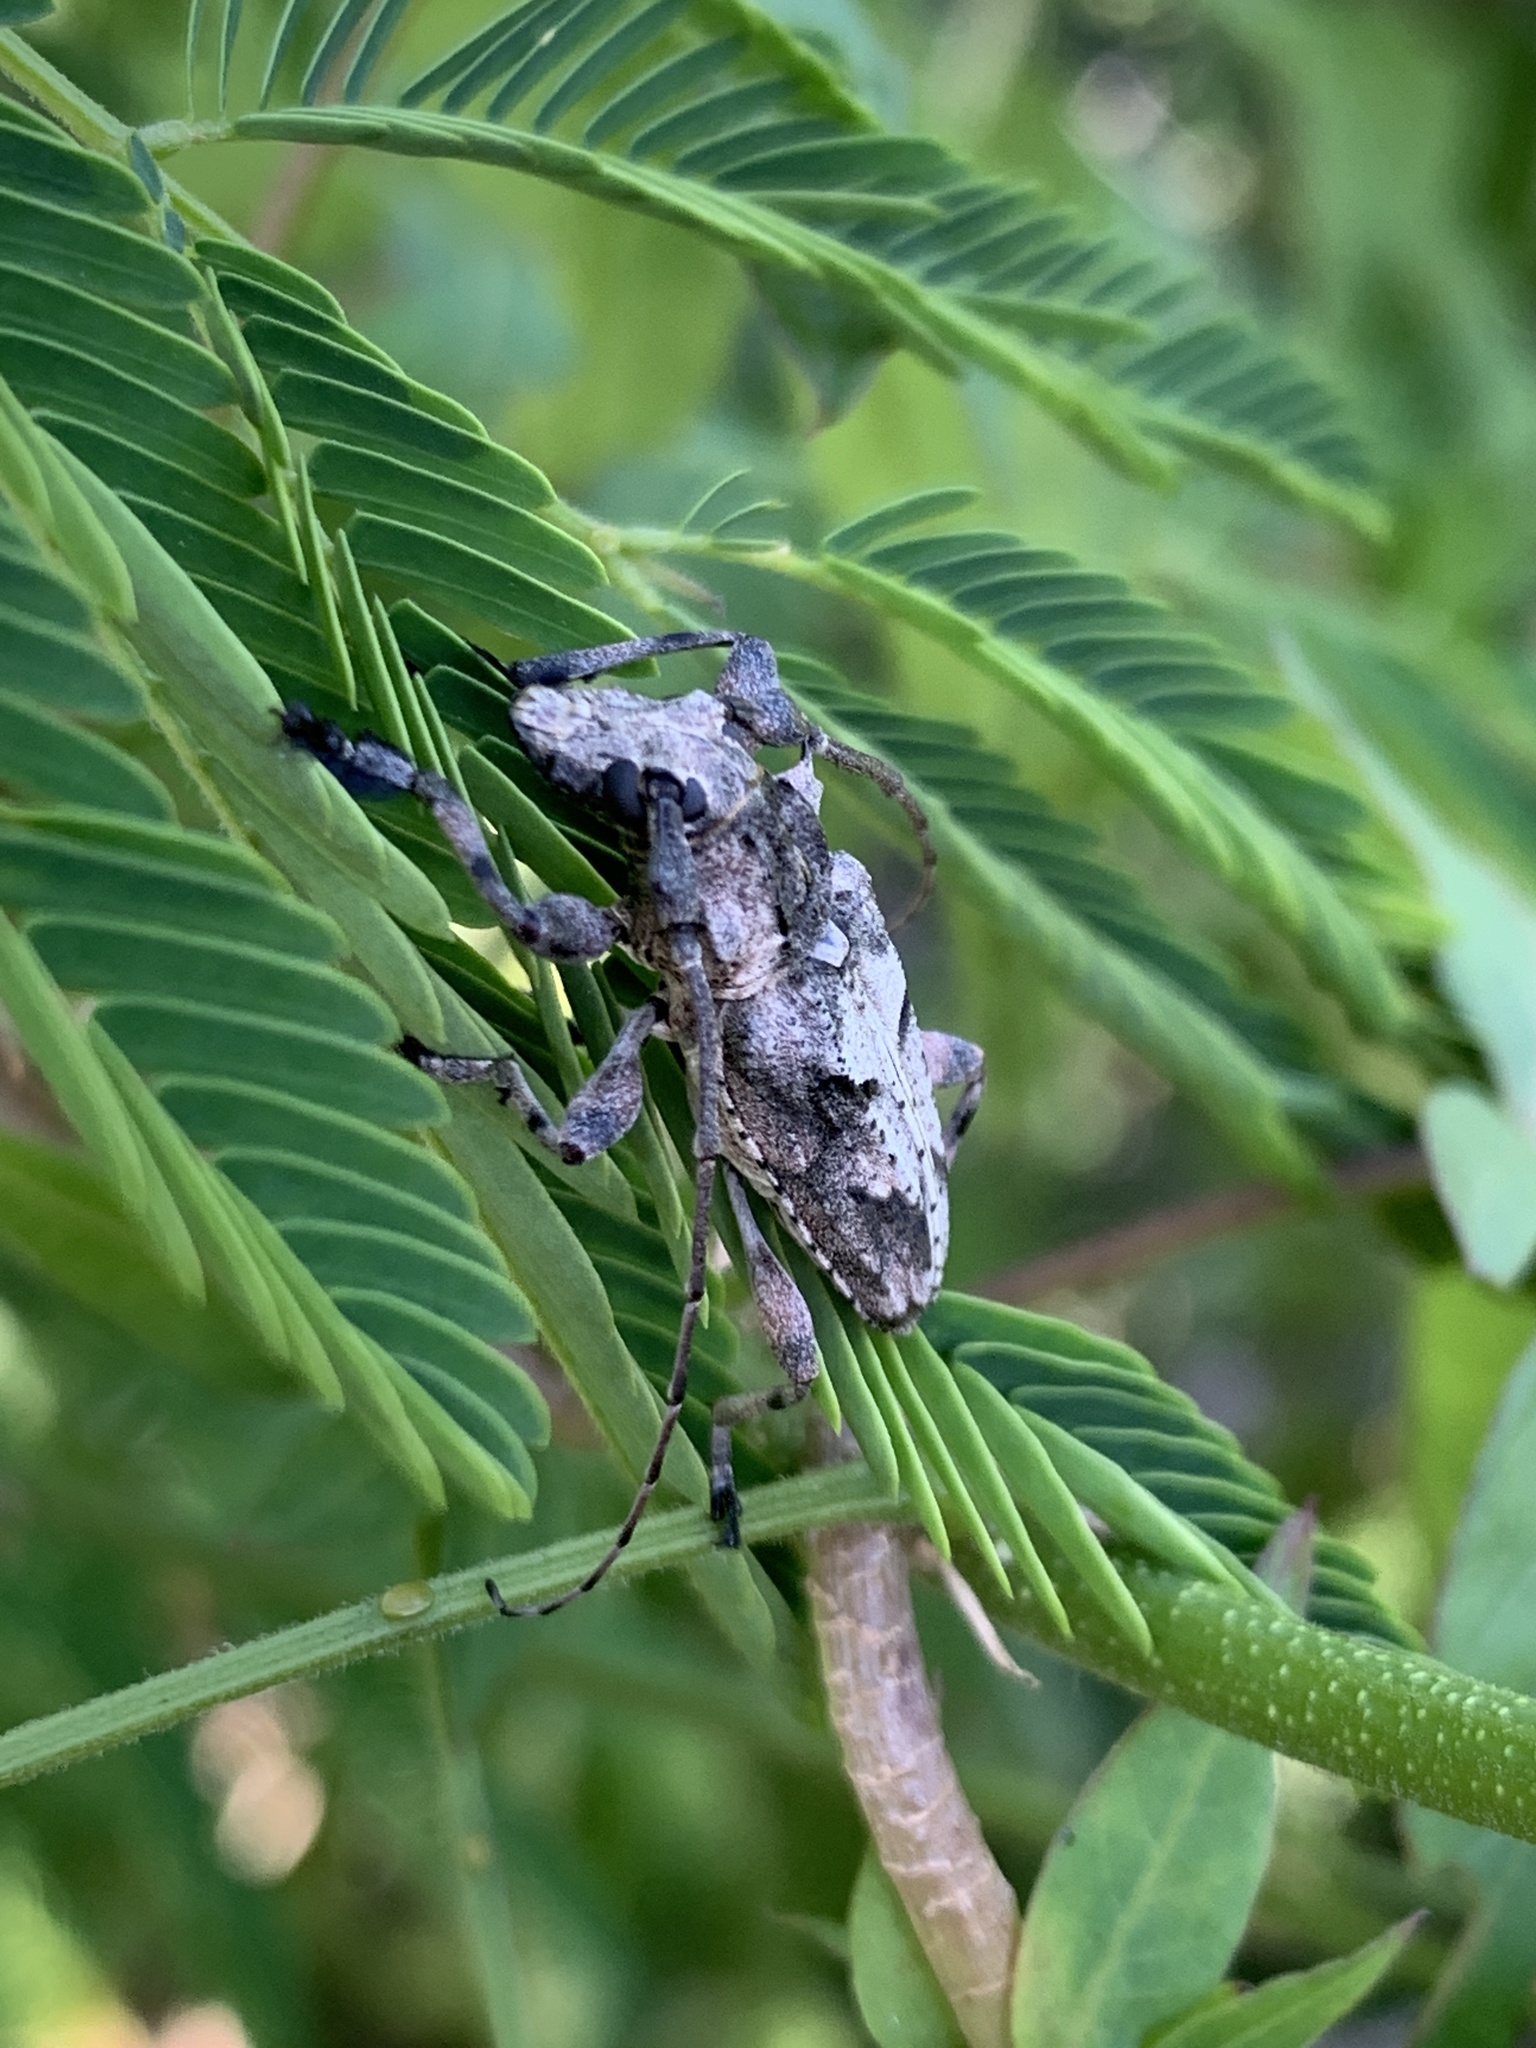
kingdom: Animalia
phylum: Arthropoda
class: Insecta
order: Coleoptera
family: Cerambycidae
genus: Steirastoma
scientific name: Steirastoma stellio
